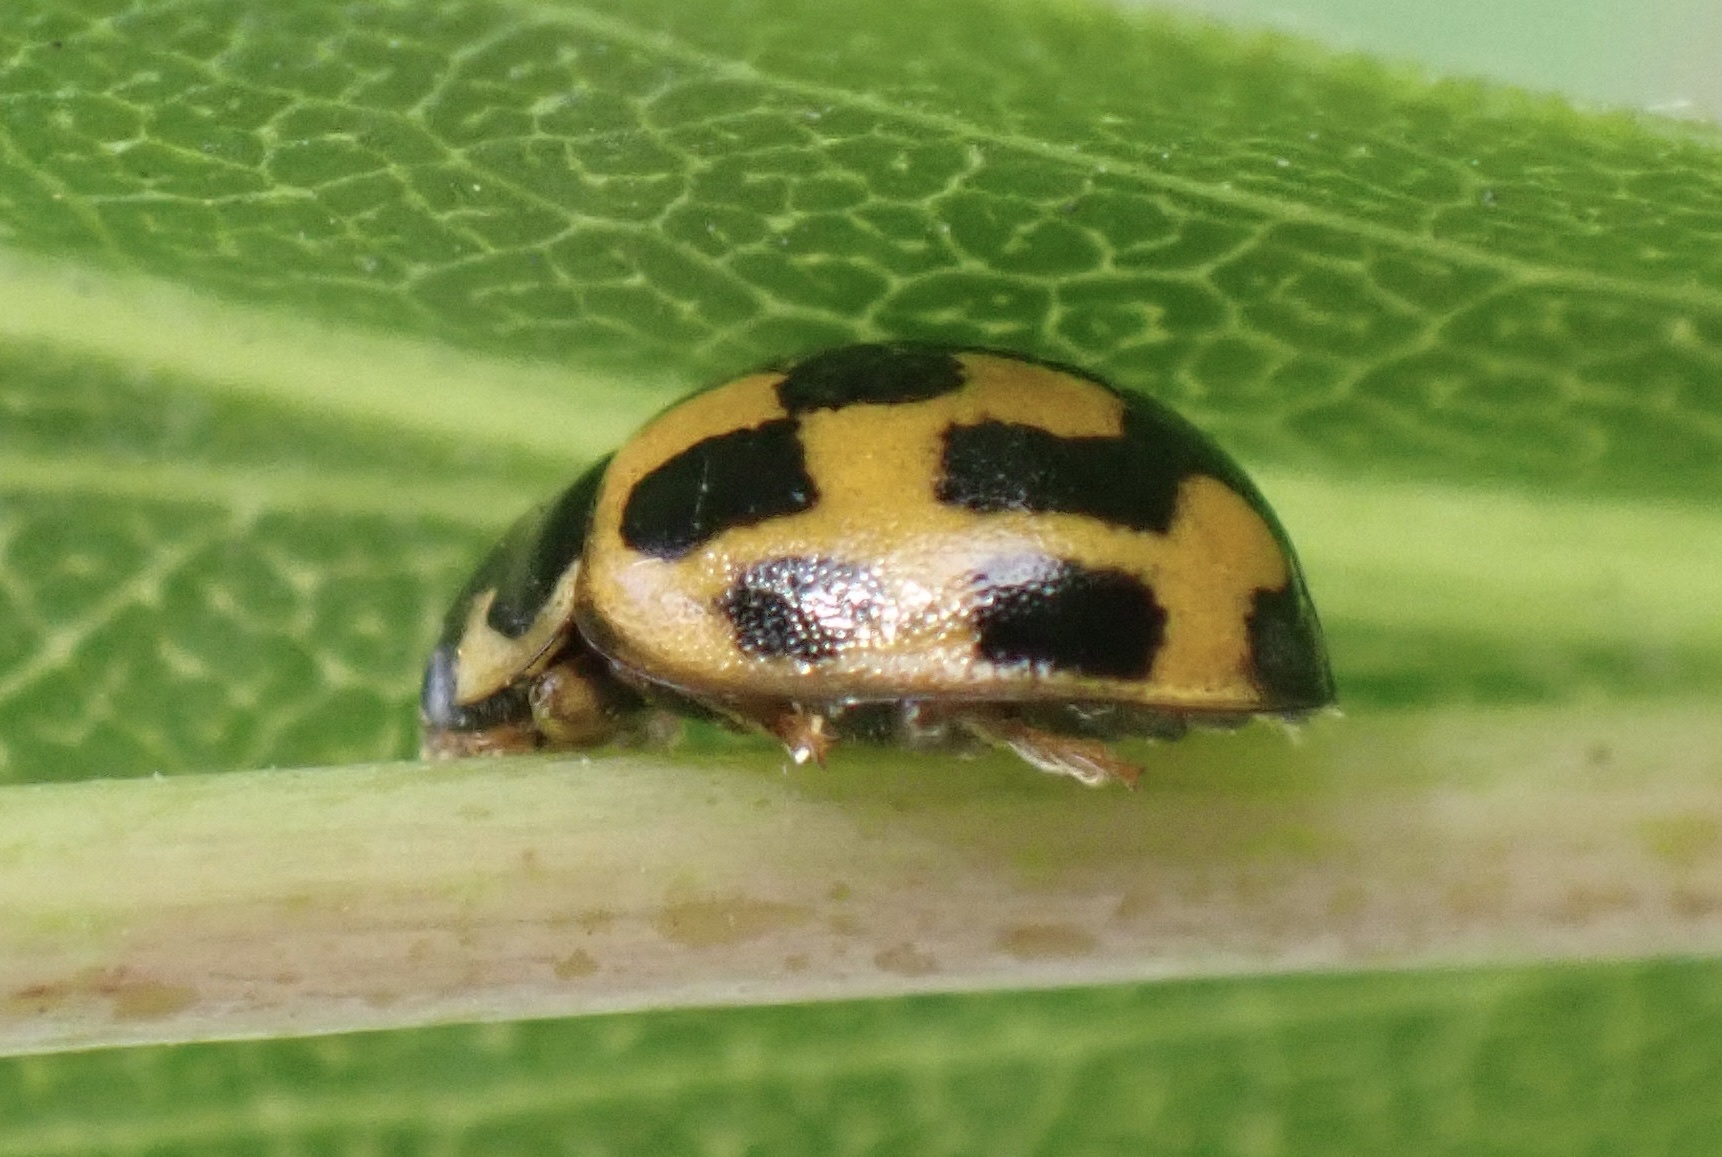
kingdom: Animalia
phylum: Arthropoda
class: Insecta
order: Coleoptera
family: Coccinellidae
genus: Propylaea
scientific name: Propylaea quatuordecimpunctata
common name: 14-spotted ladybird beetle
